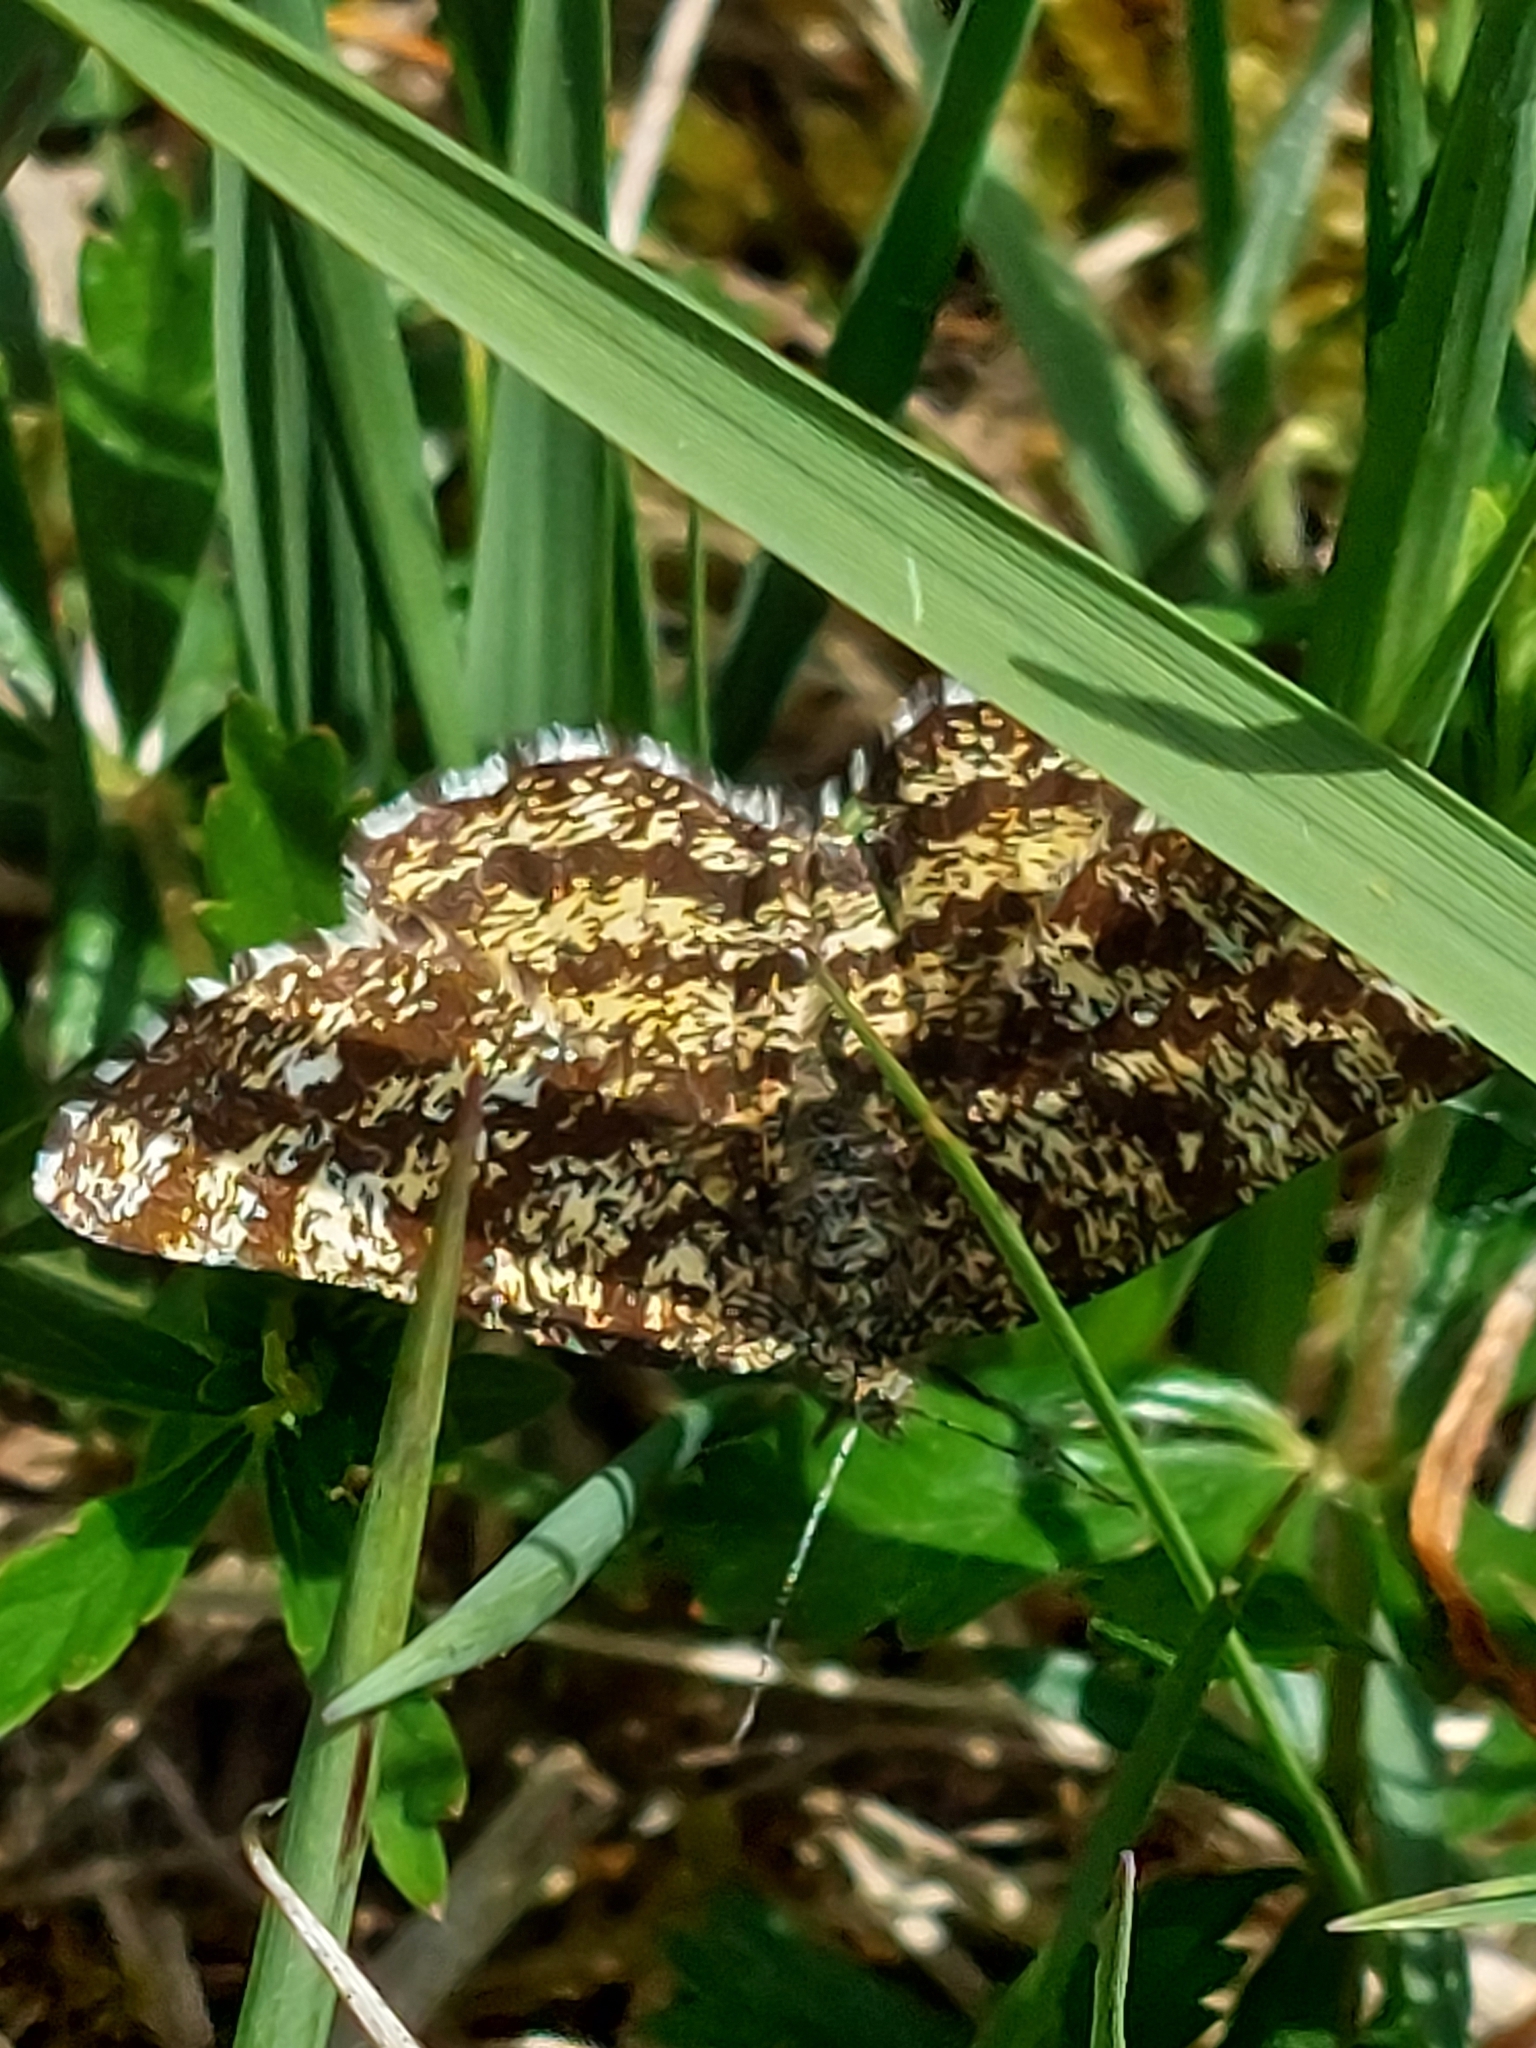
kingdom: Animalia
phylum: Arthropoda
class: Insecta
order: Lepidoptera
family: Geometridae
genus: Ematurga
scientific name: Ematurga atomaria
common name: Common heath
